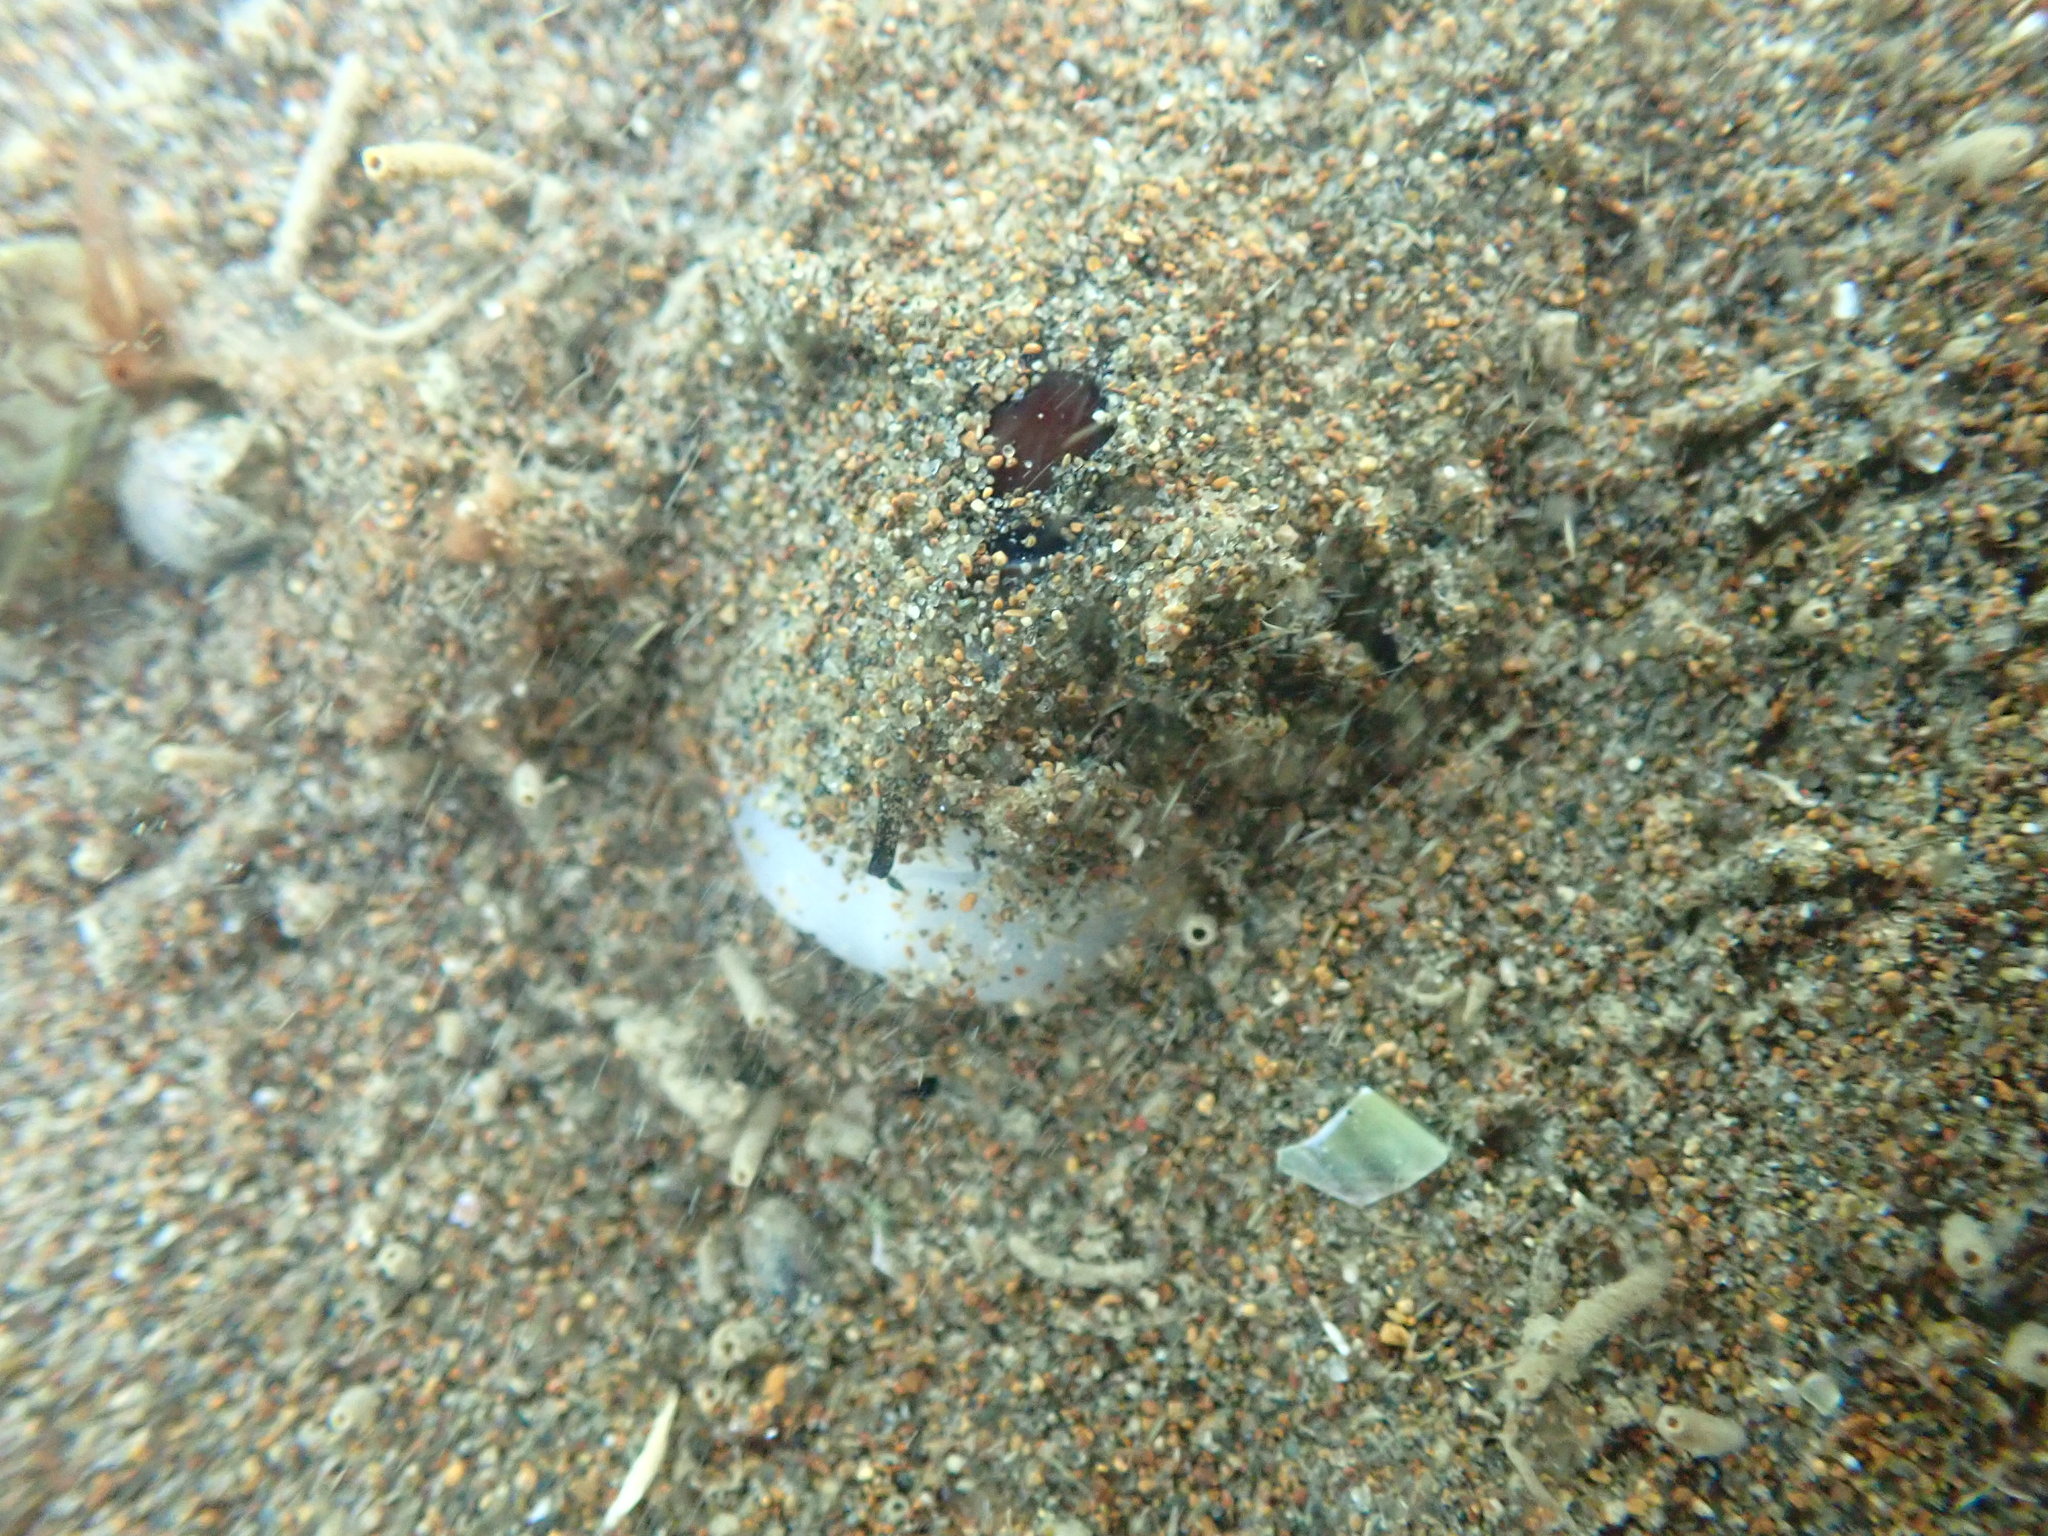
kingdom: Animalia
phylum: Mollusca
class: Gastropoda
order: Neogastropoda
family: Ancillariidae
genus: Amalda
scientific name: Amalda australis
